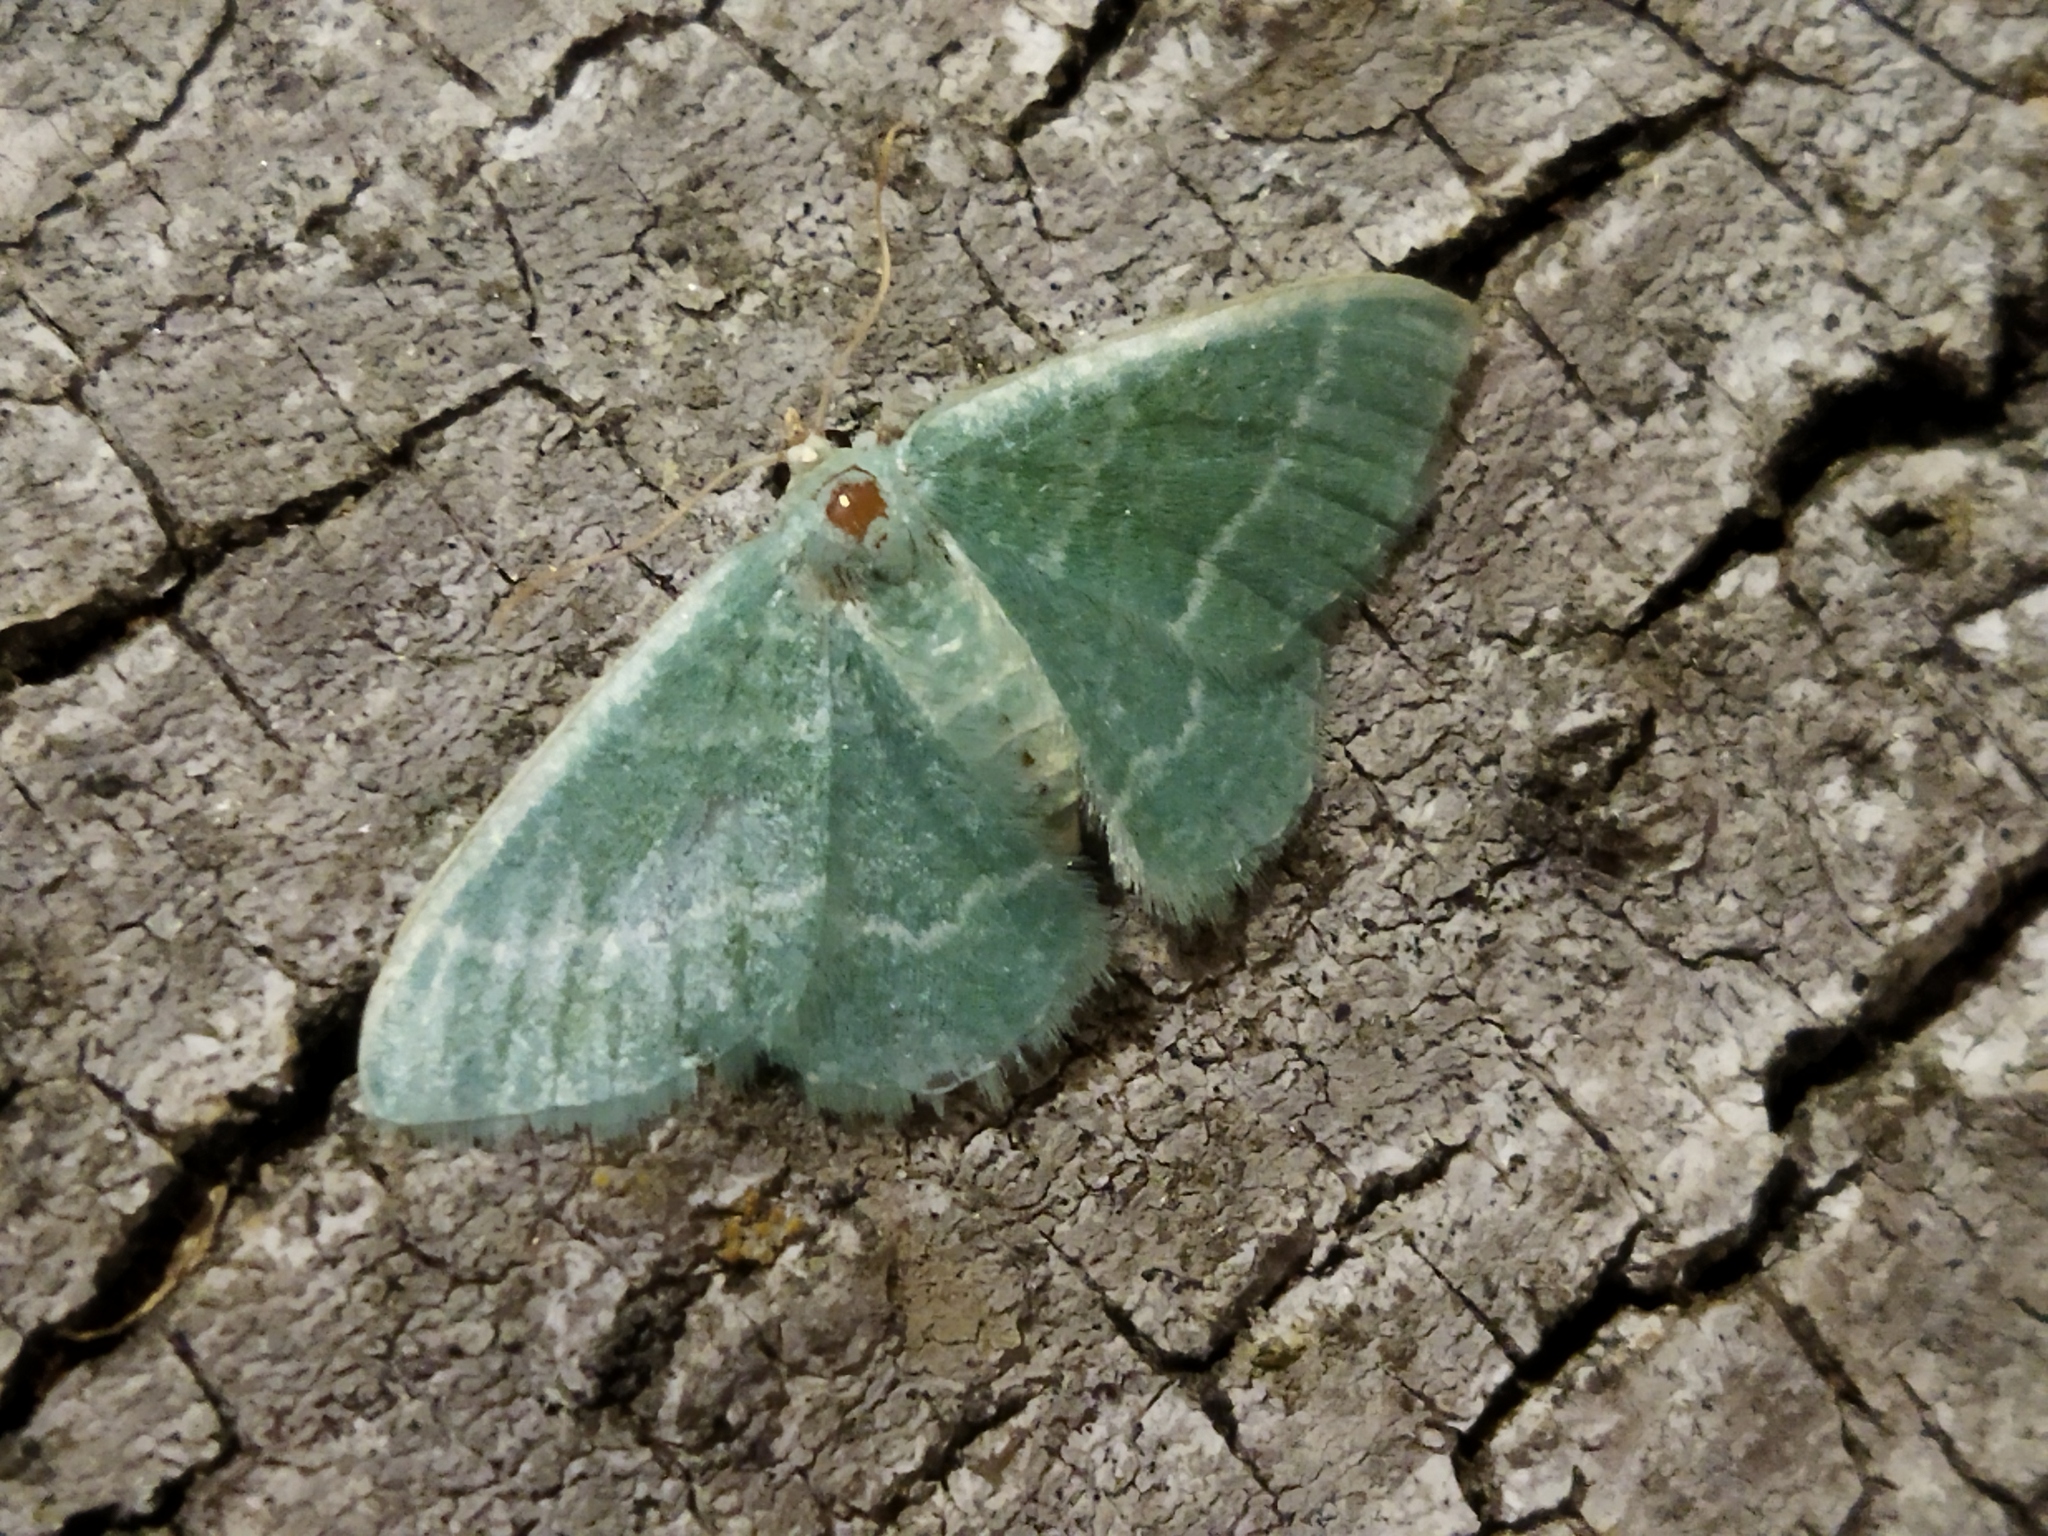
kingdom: Animalia
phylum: Arthropoda
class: Insecta
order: Lepidoptera
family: Geometridae
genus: Chlorissa
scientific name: Chlorissa etruscaria
